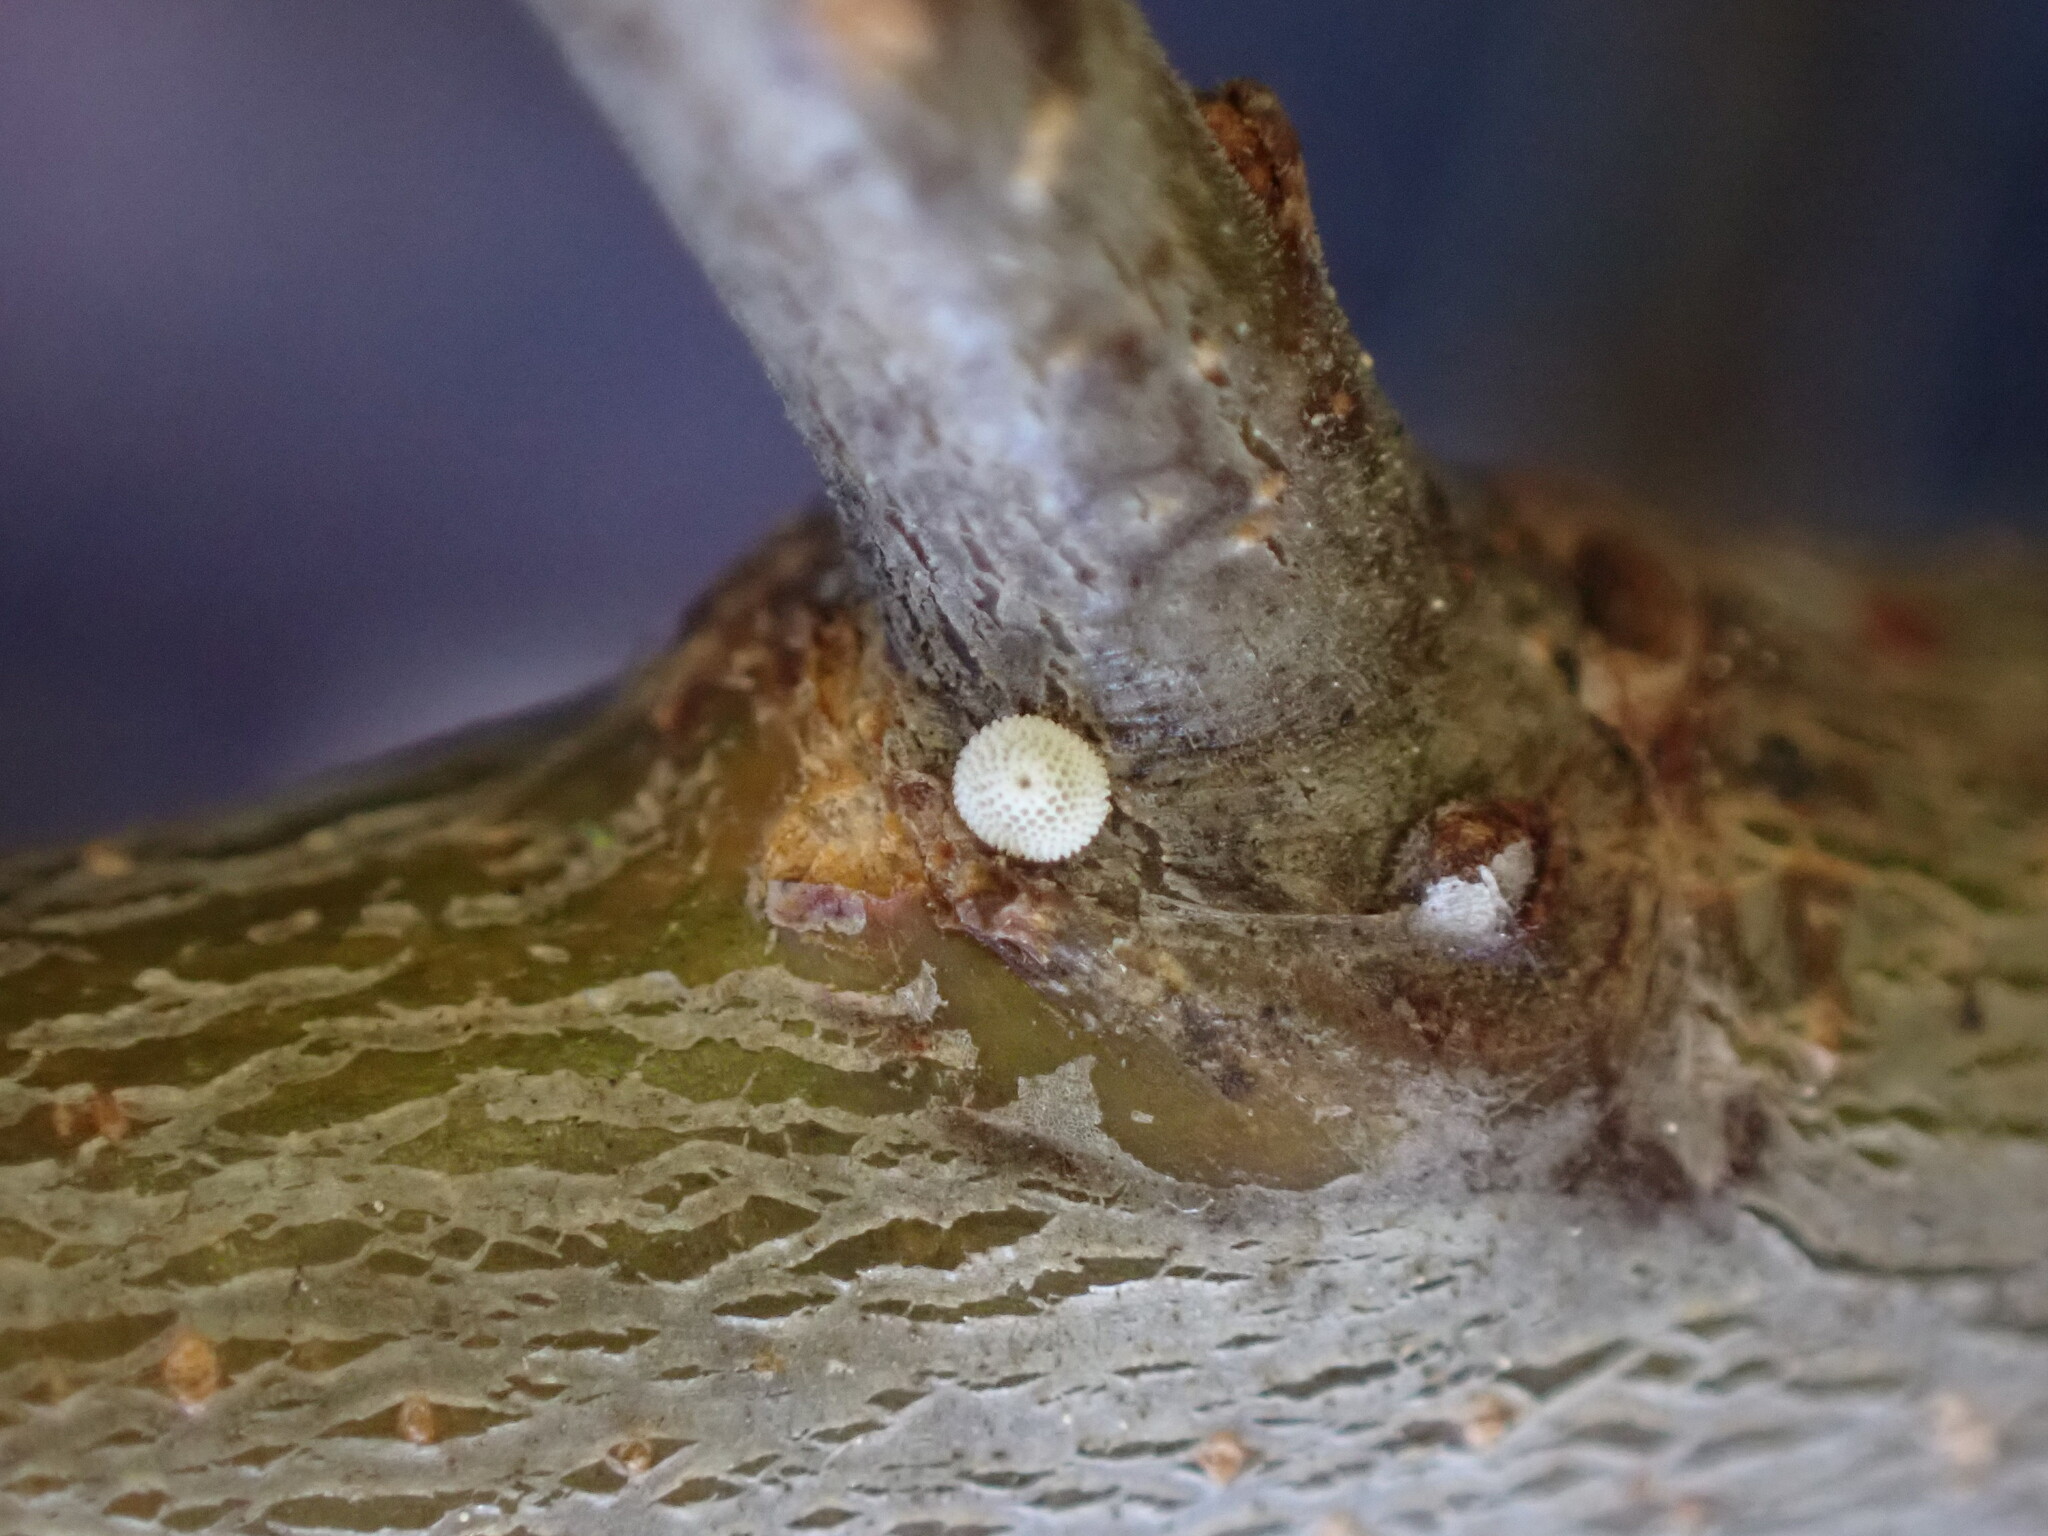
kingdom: Animalia
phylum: Arthropoda
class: Insecta
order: Lepidoptera
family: Lycaenidae
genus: Thecla
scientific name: Thecla betulae
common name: Brown hairstreak
